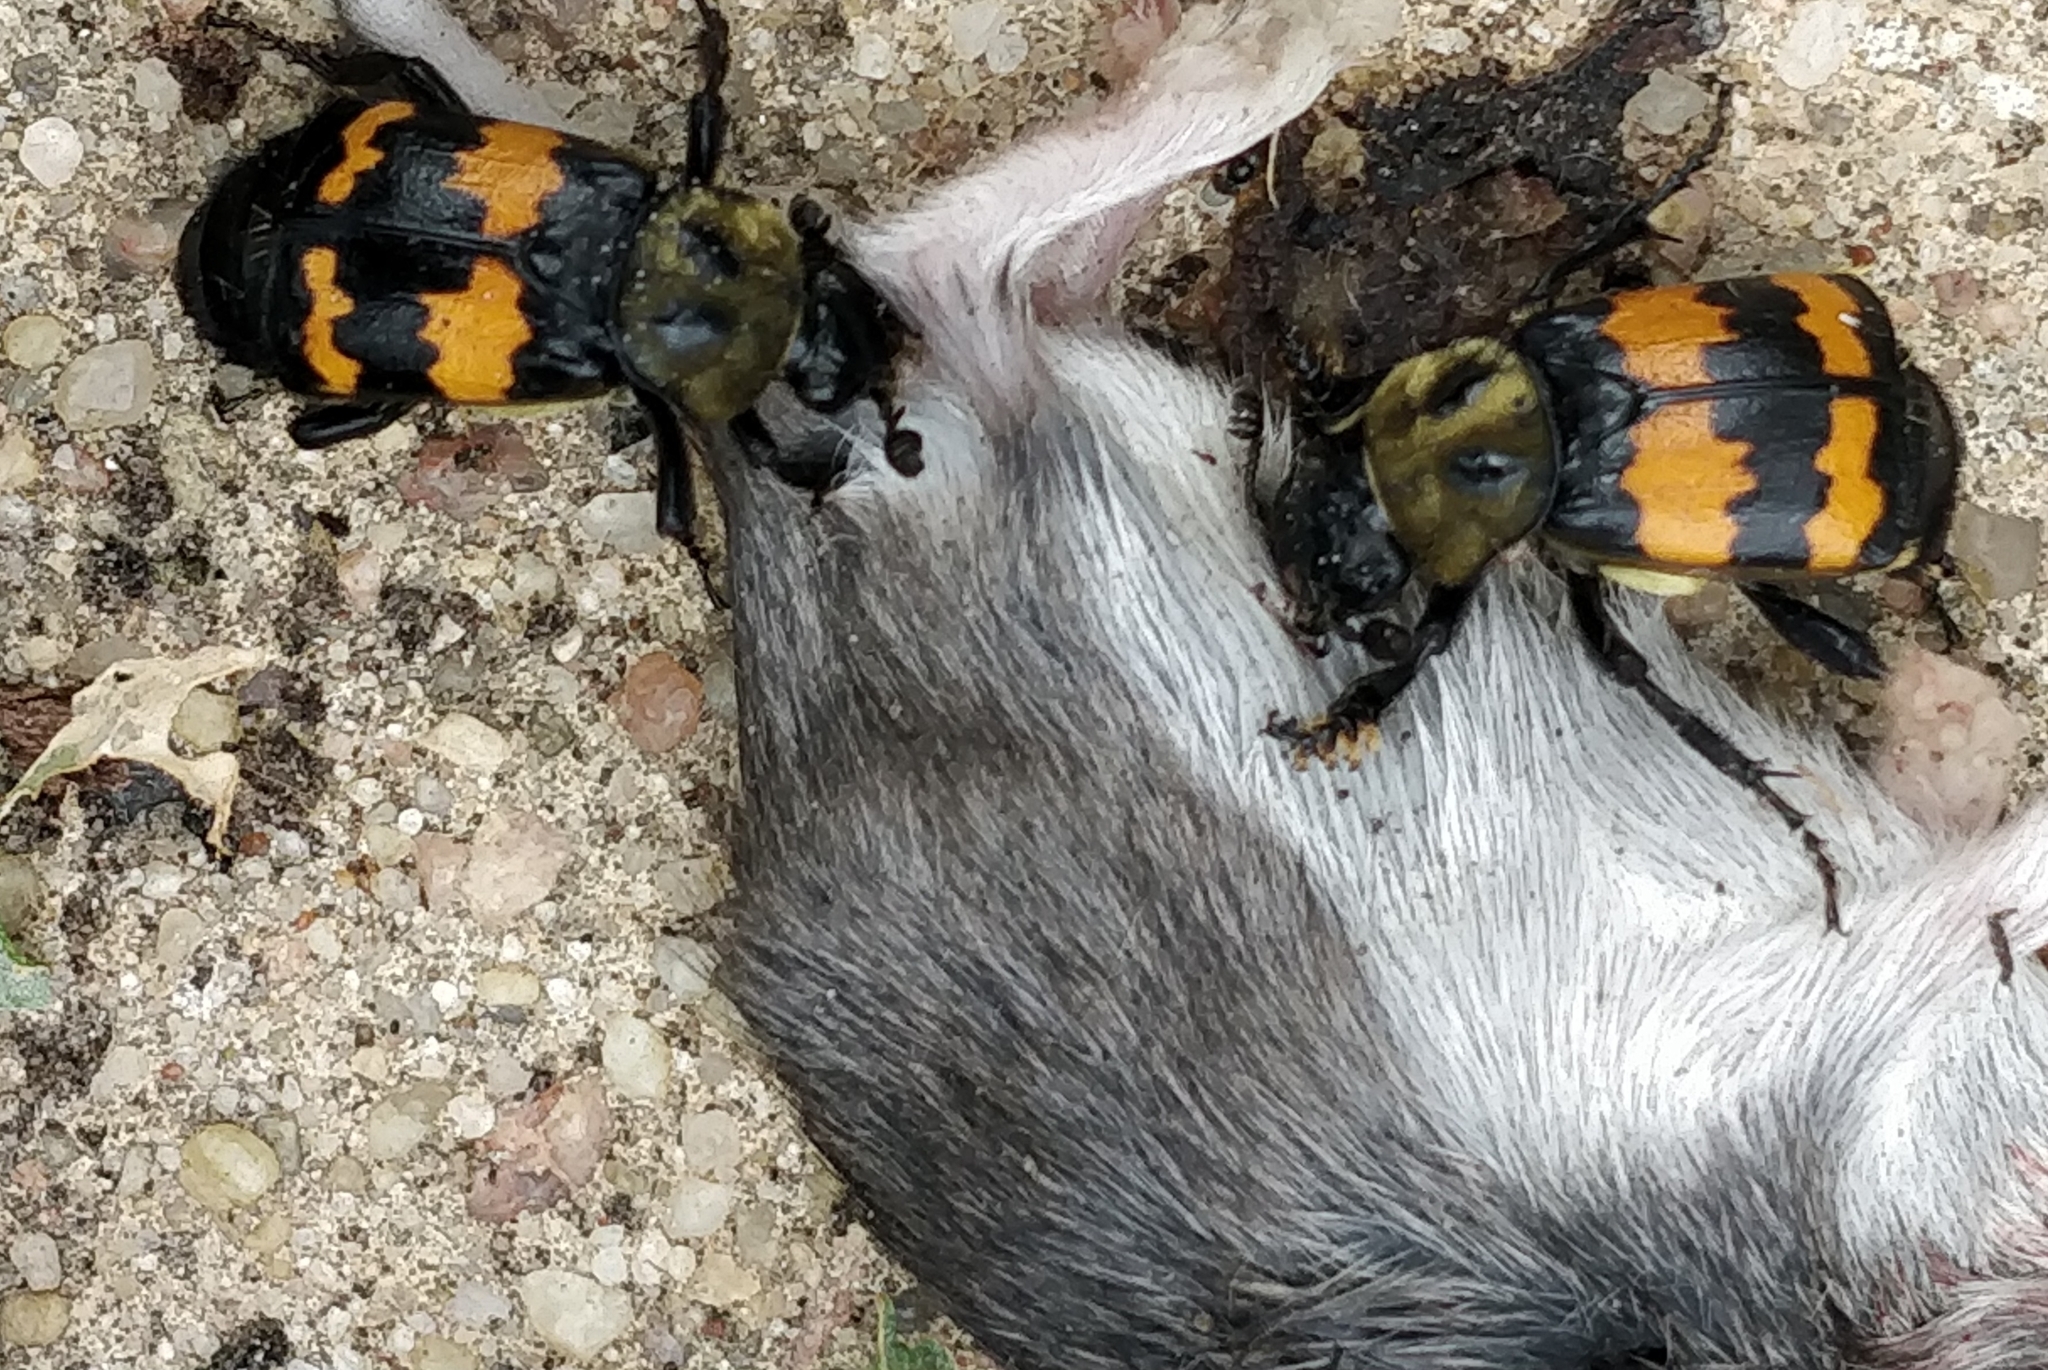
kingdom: Animalia
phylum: Arthropoda
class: Insecta
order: Coleoptera
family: Staphylinidae
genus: Nicrophorus
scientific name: Nicrophorus tomentosus
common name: Tomentose burying beetle
